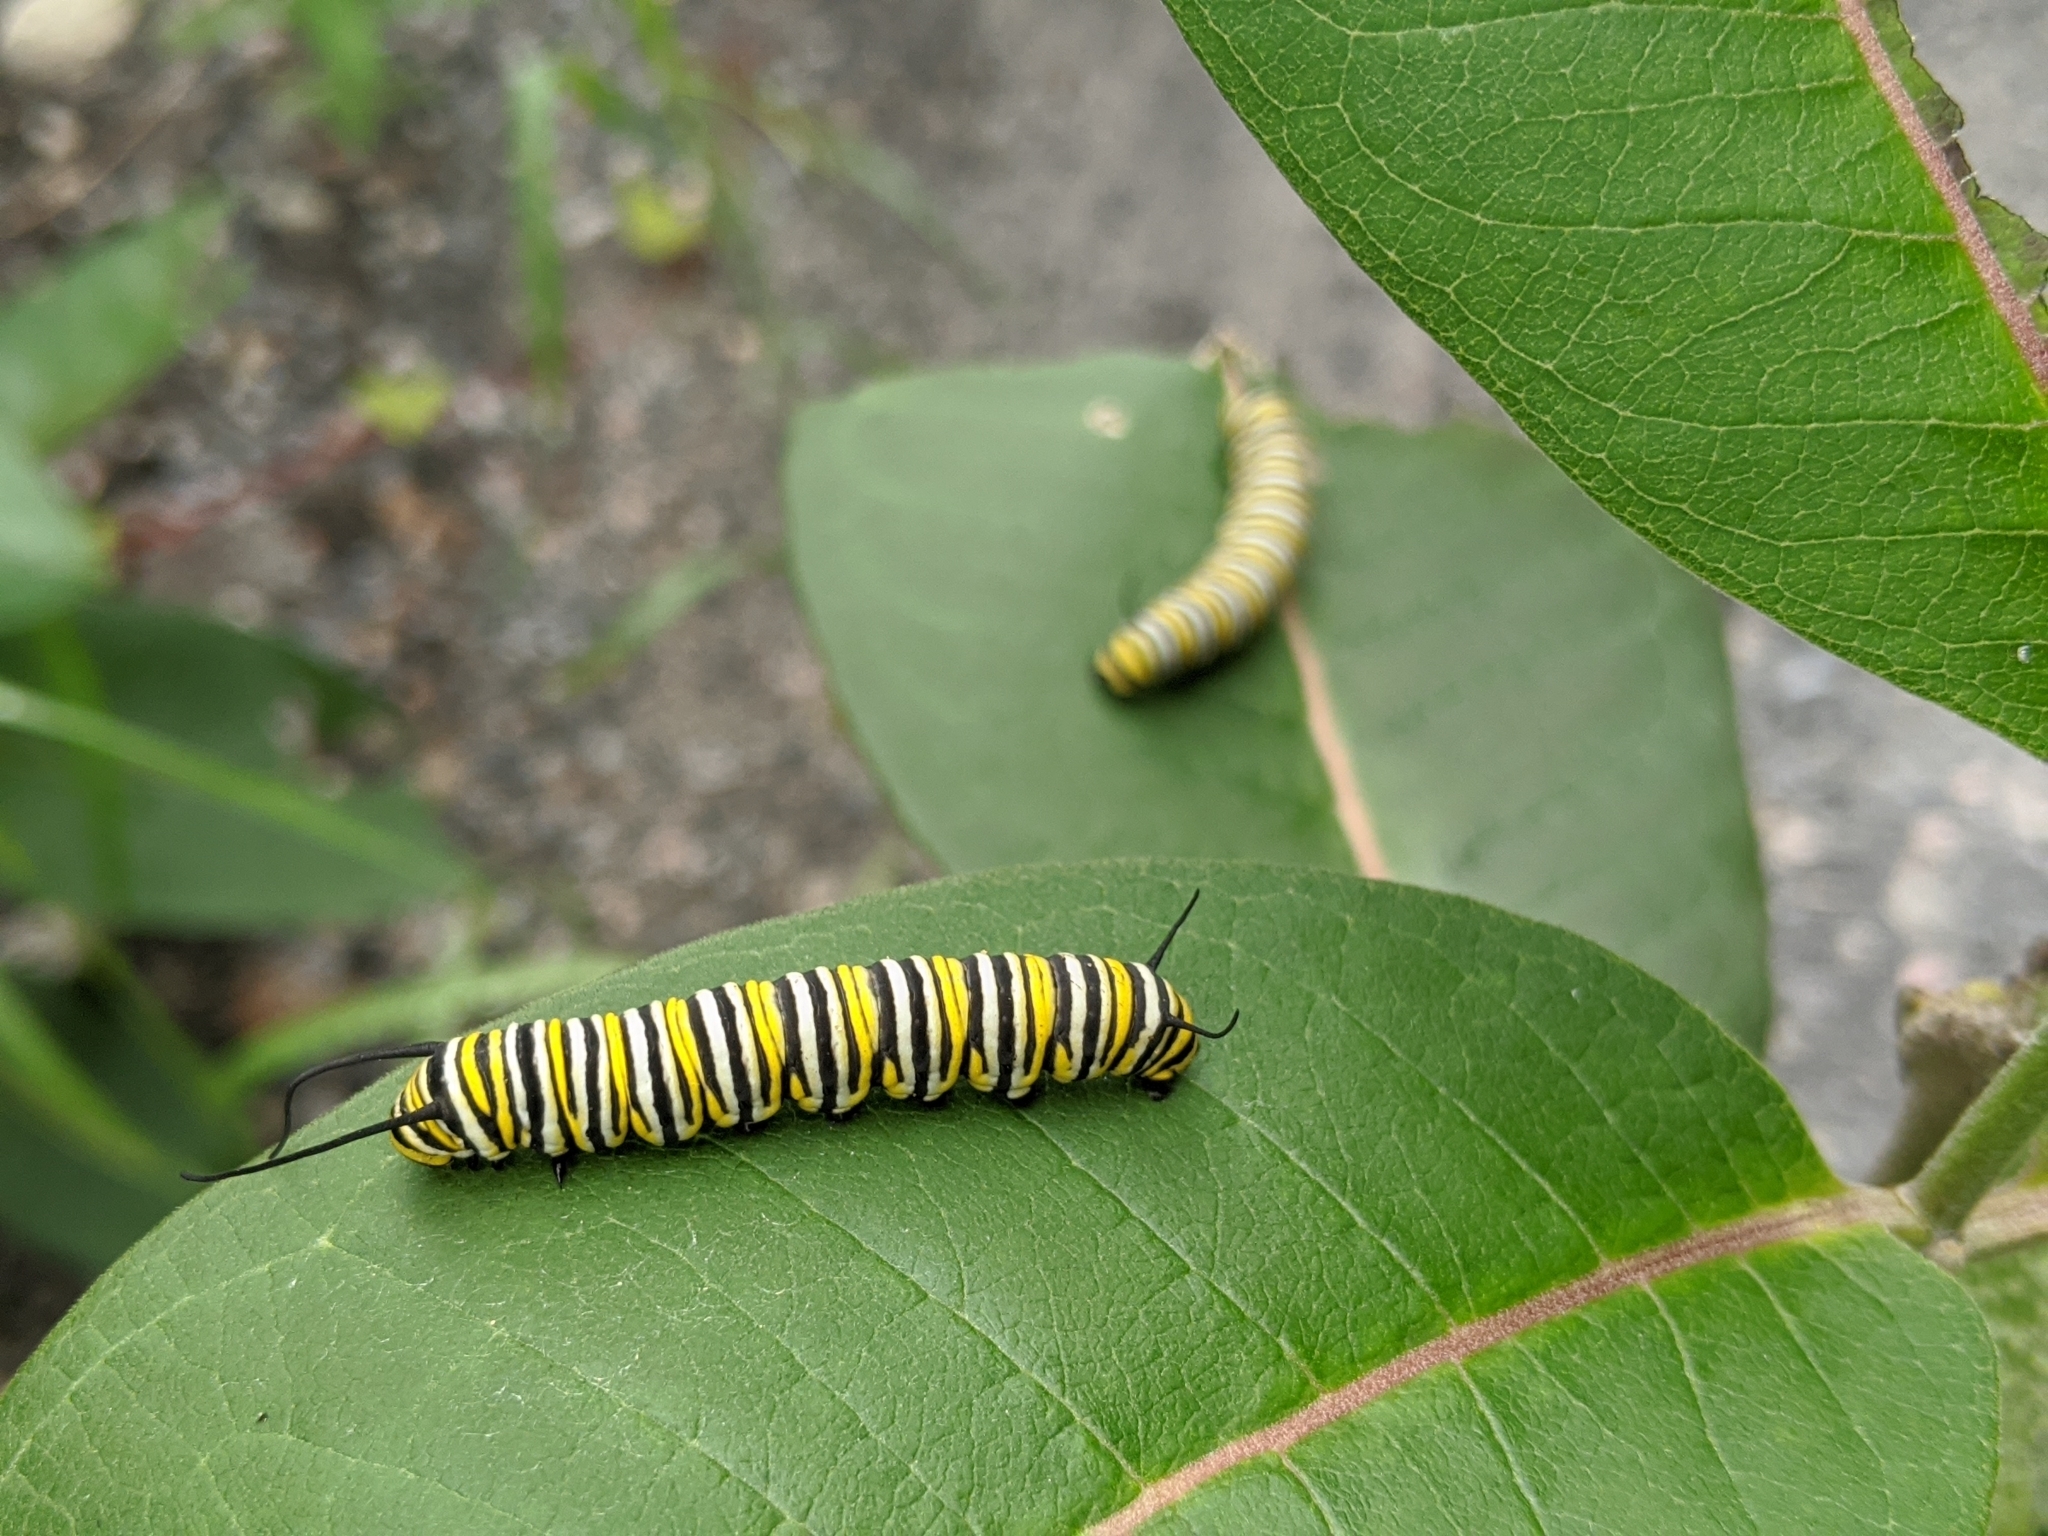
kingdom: Animalia
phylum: Arthropoda
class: Insecta
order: Lepidoptera
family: Nymphalidae
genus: Danaus
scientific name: Danaus plexippus
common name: Monarch
